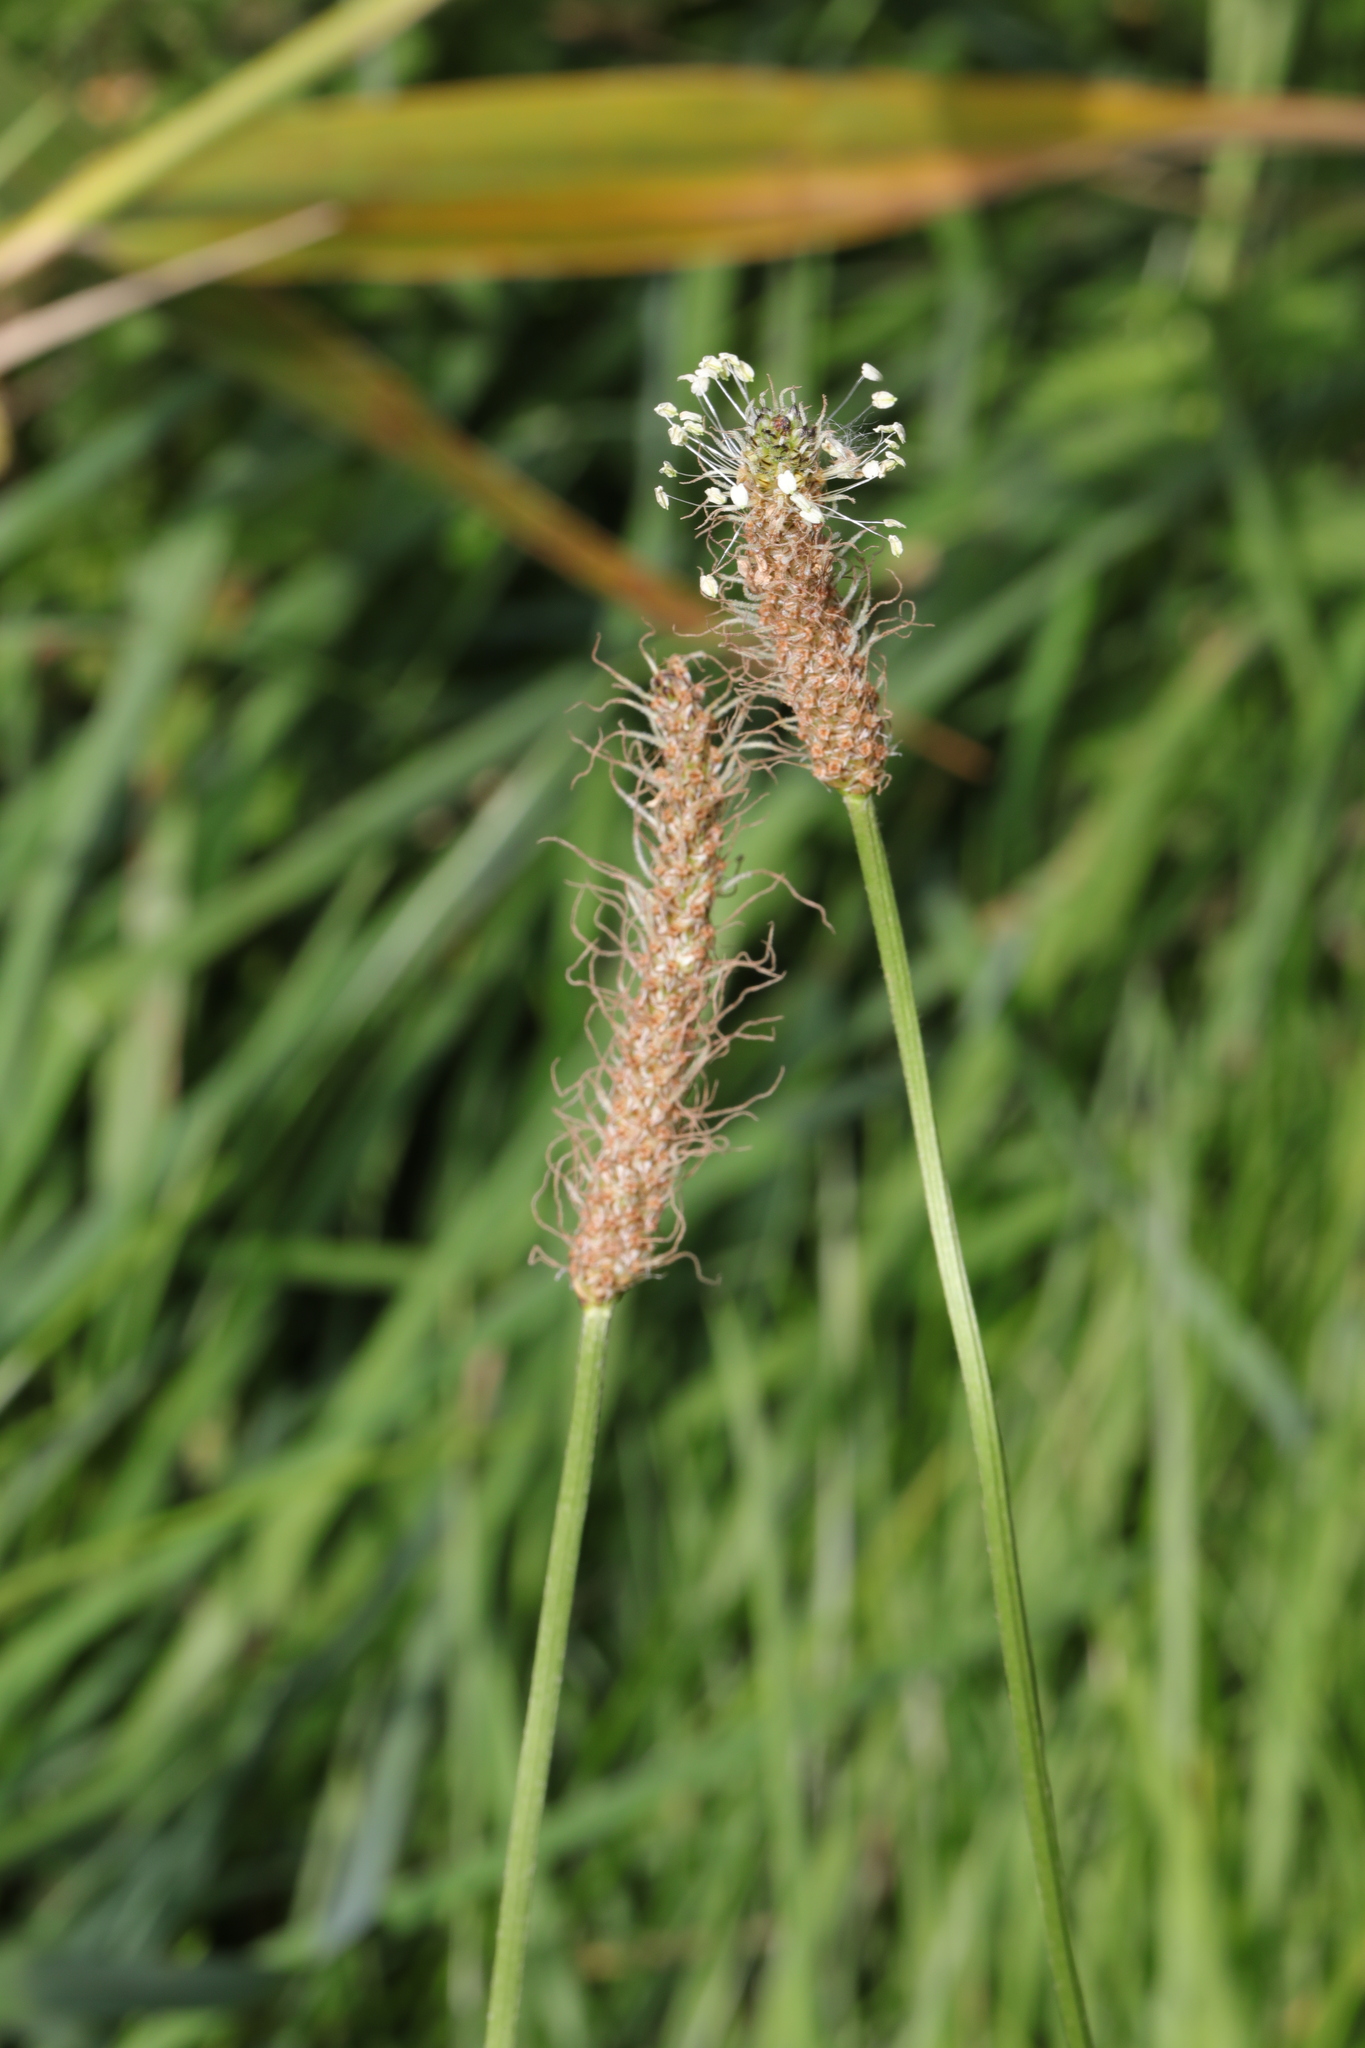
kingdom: Plantae
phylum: Tracheophyta
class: Magnoliopsida
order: Lamiales
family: Plantaginaceae
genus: Plantago
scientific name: Plantago lanceolata
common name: Ribwort plantain
